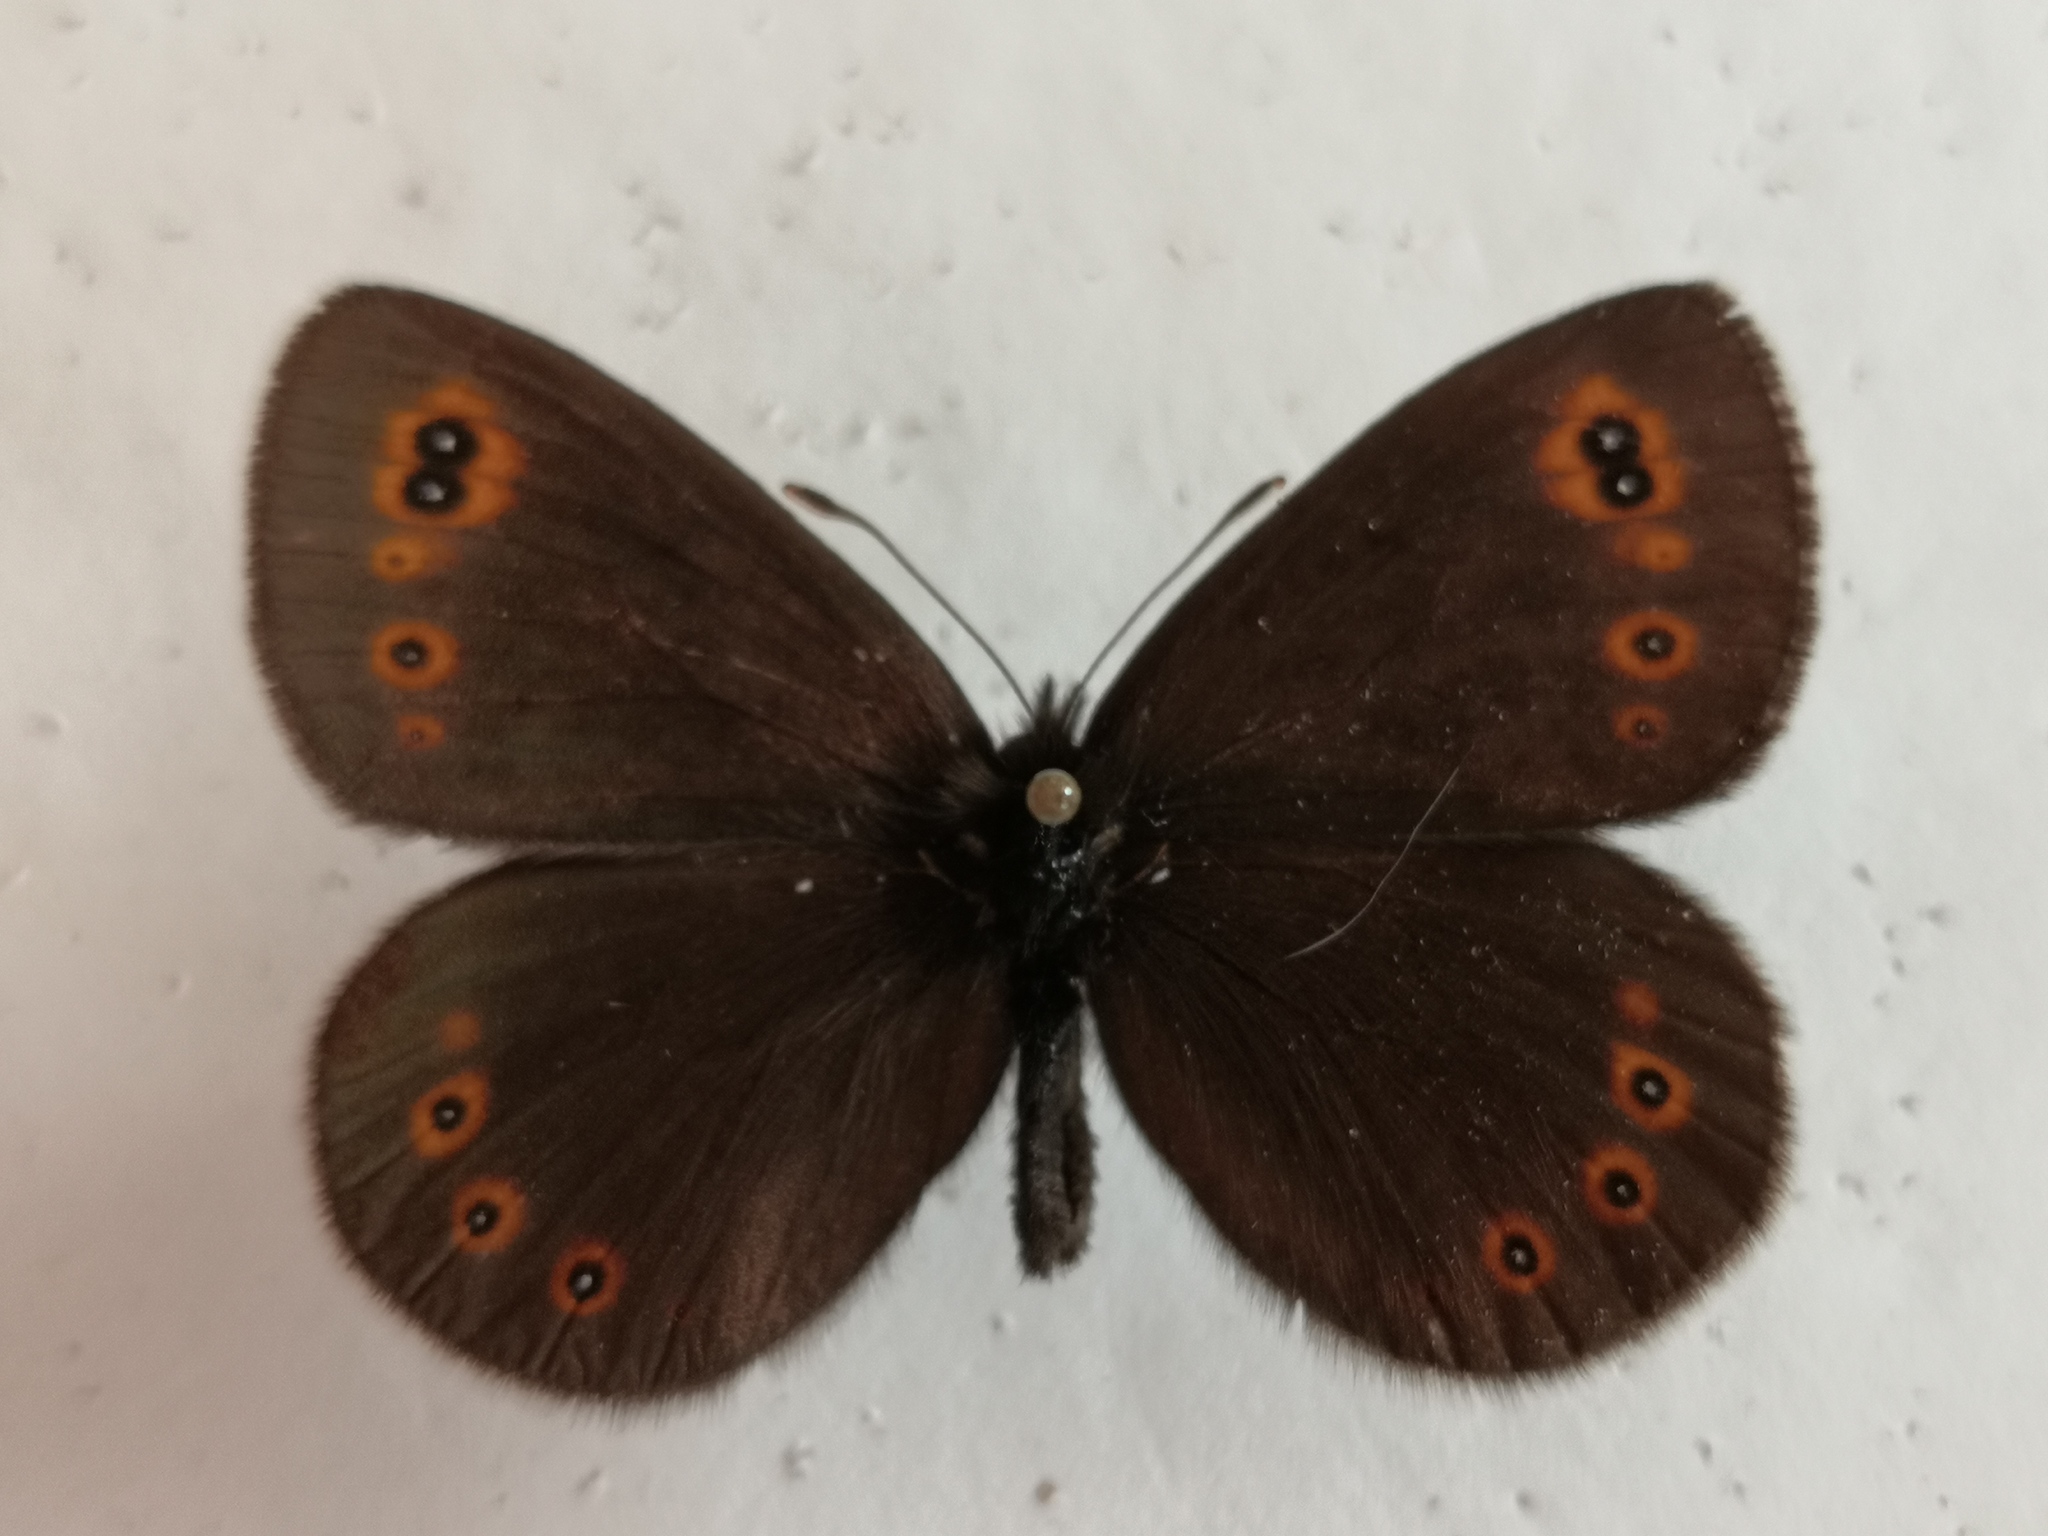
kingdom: Animalia
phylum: Arthropoda
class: Insecta
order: Lepidoptera
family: Nymphalidae
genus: Erebia
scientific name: Erebia medusa
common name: Woodland ringlet
